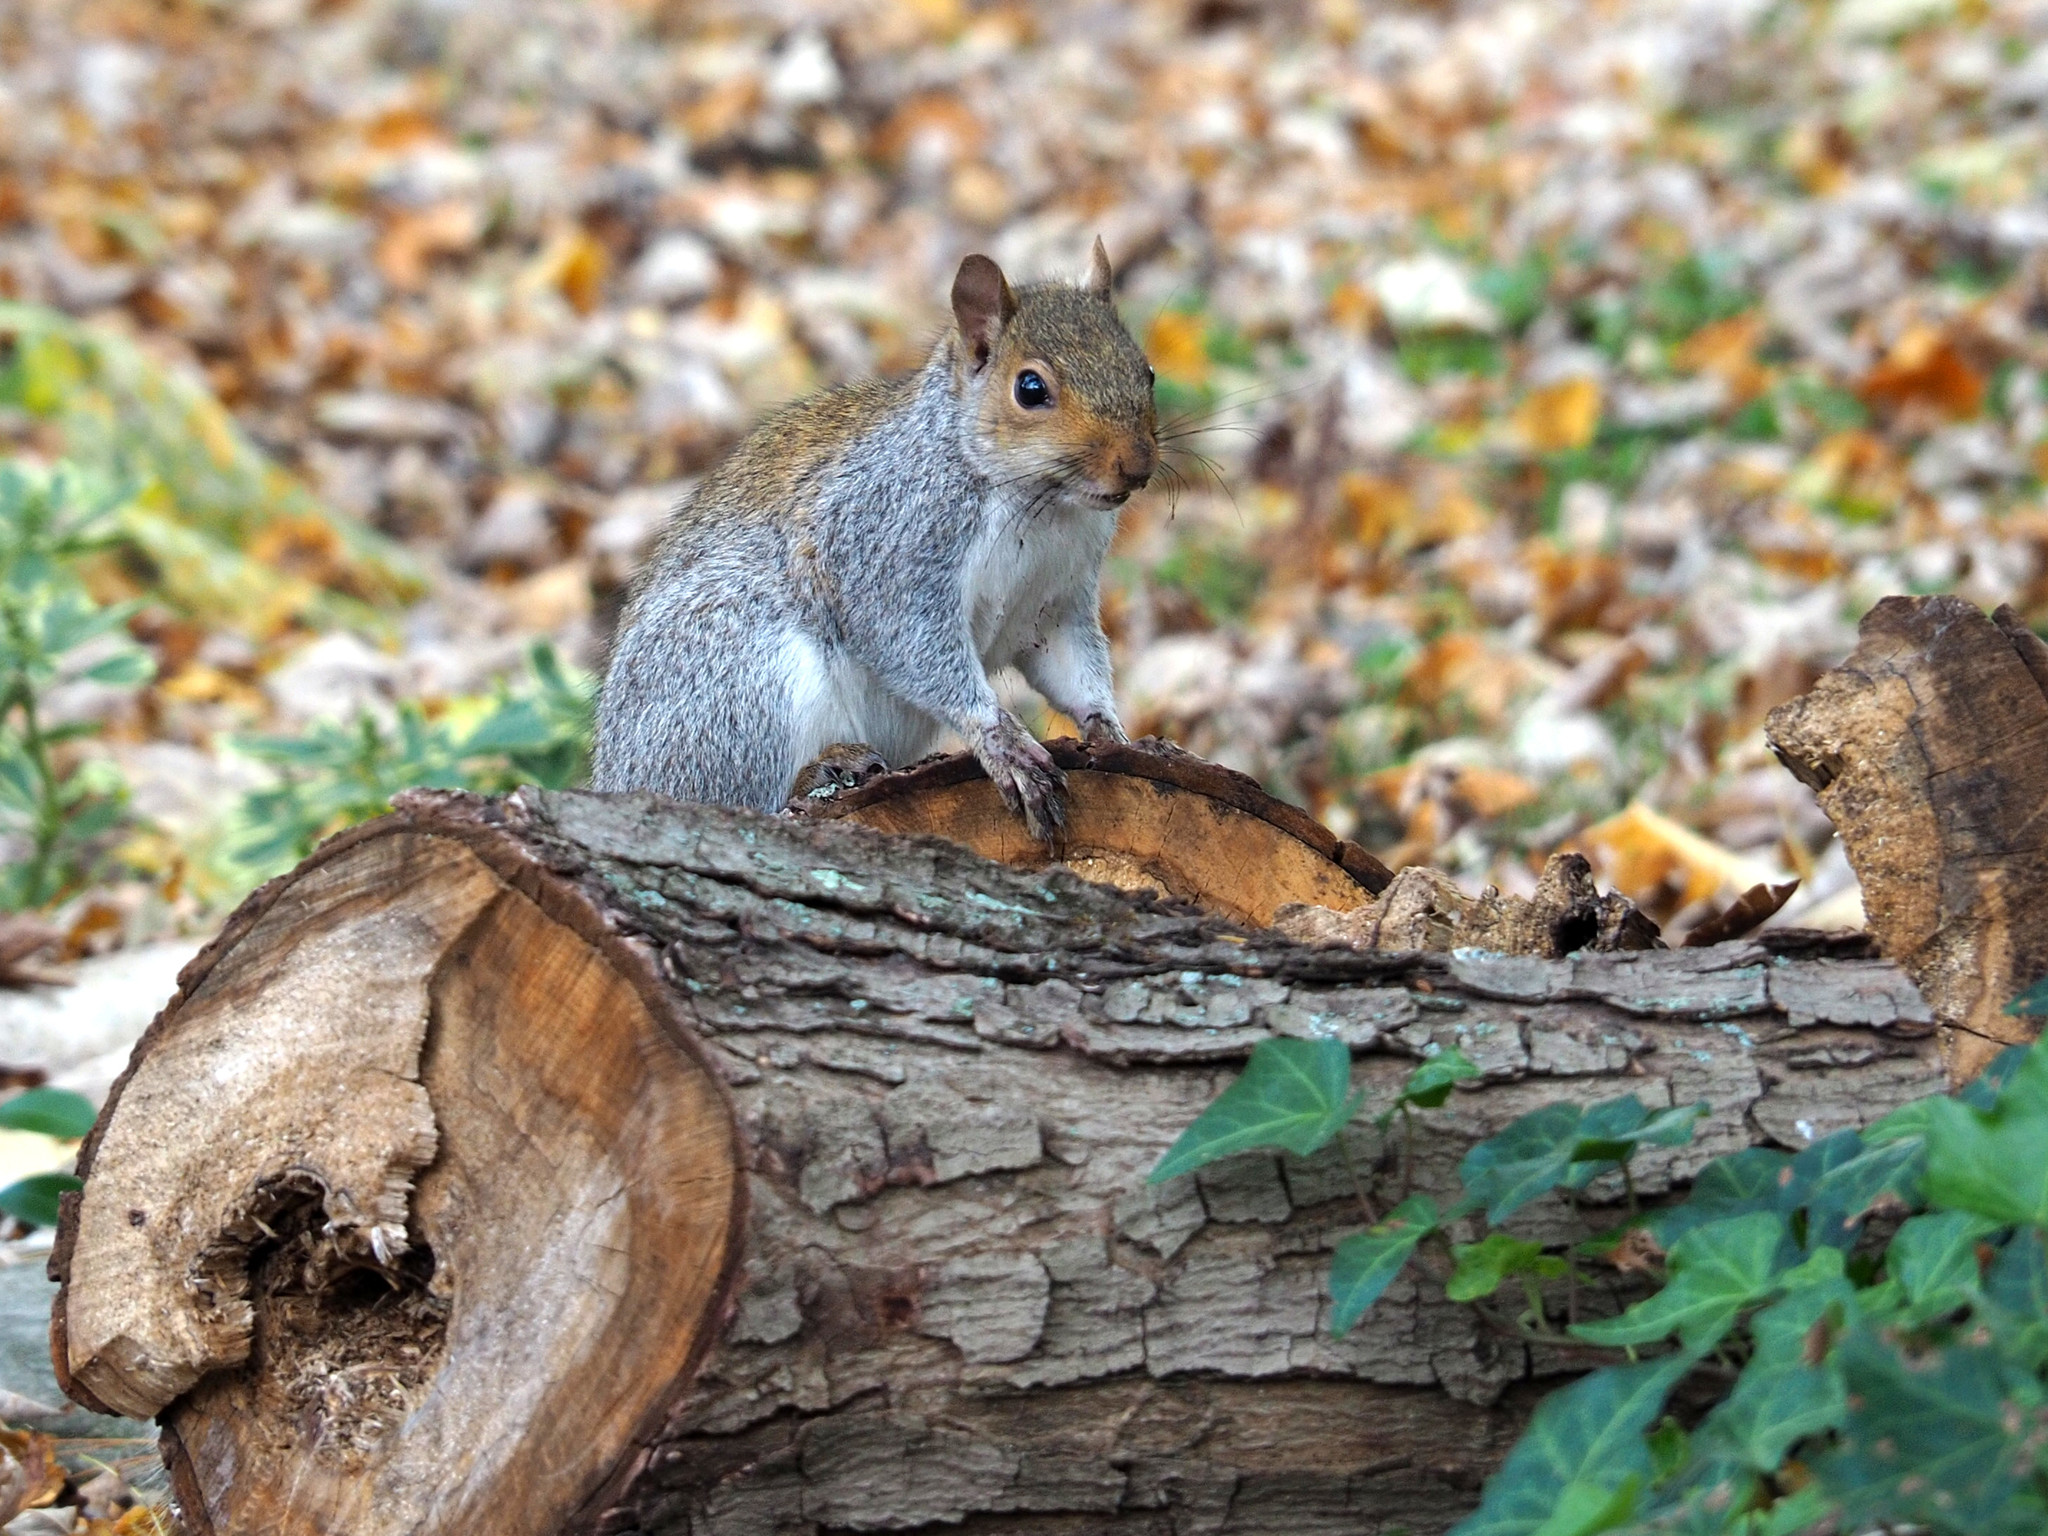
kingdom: Animalia
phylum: Chordata
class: Mammalia
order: Rodentia
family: Sciuridae
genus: Sciurus
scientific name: Sciurus carolinensis
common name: Eastern gray squirrel
